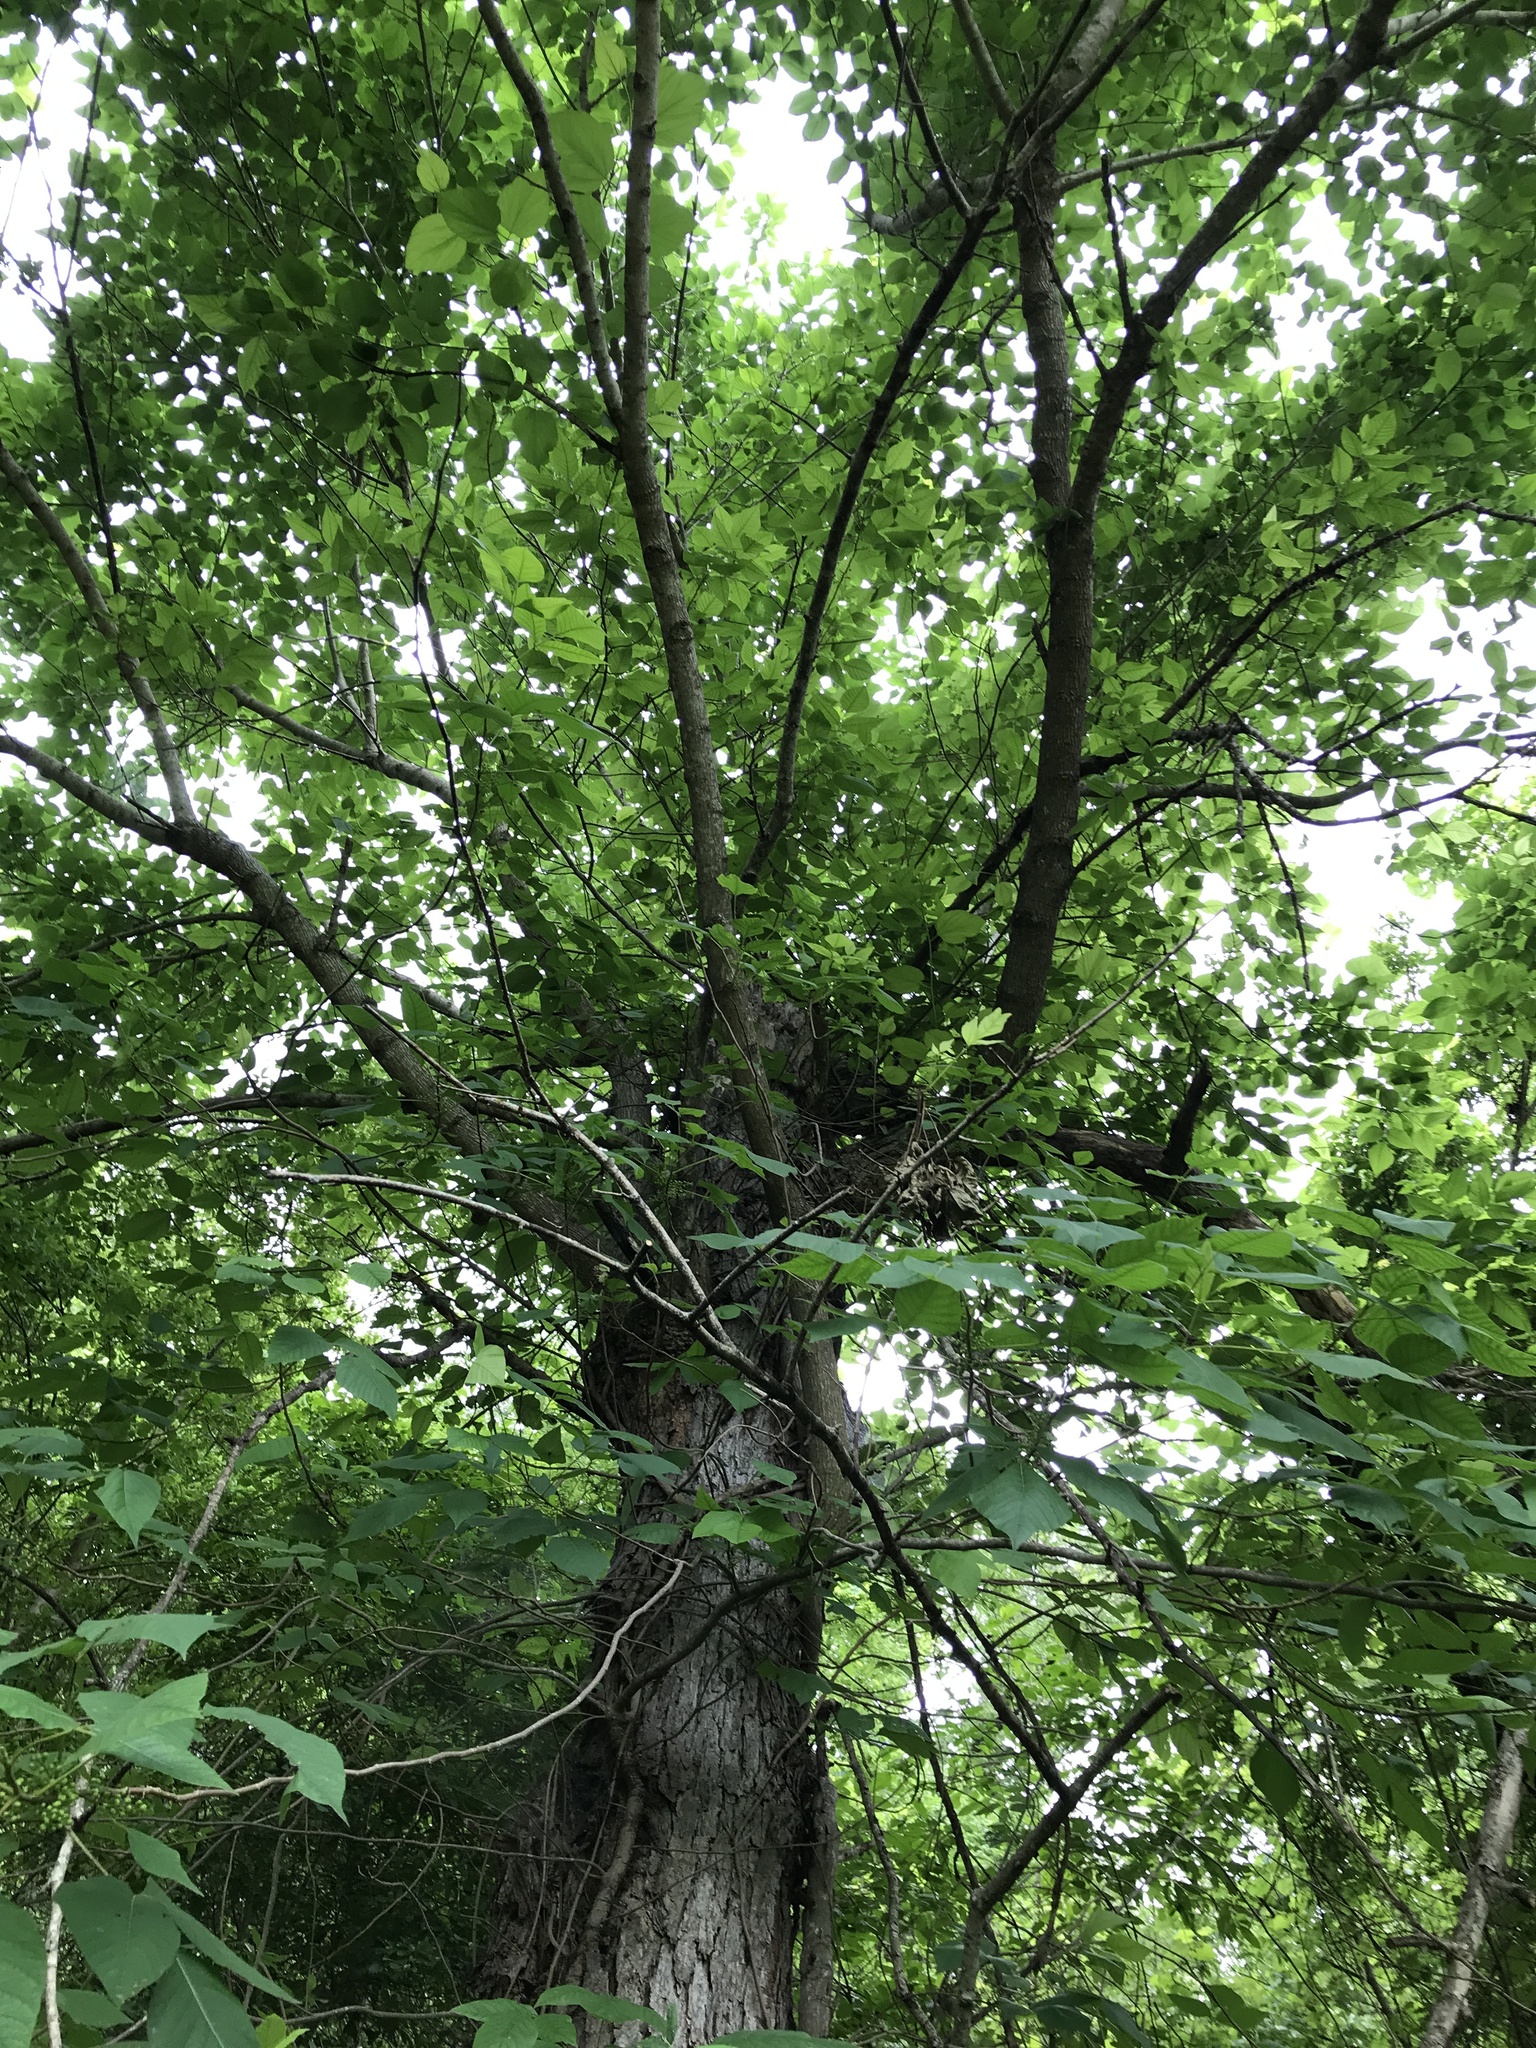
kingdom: Plantae
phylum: Tracheophyta
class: Magnoliopsida
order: Rosales
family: Moraceae
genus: Morus
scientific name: Morus rubra
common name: Red mulberry
